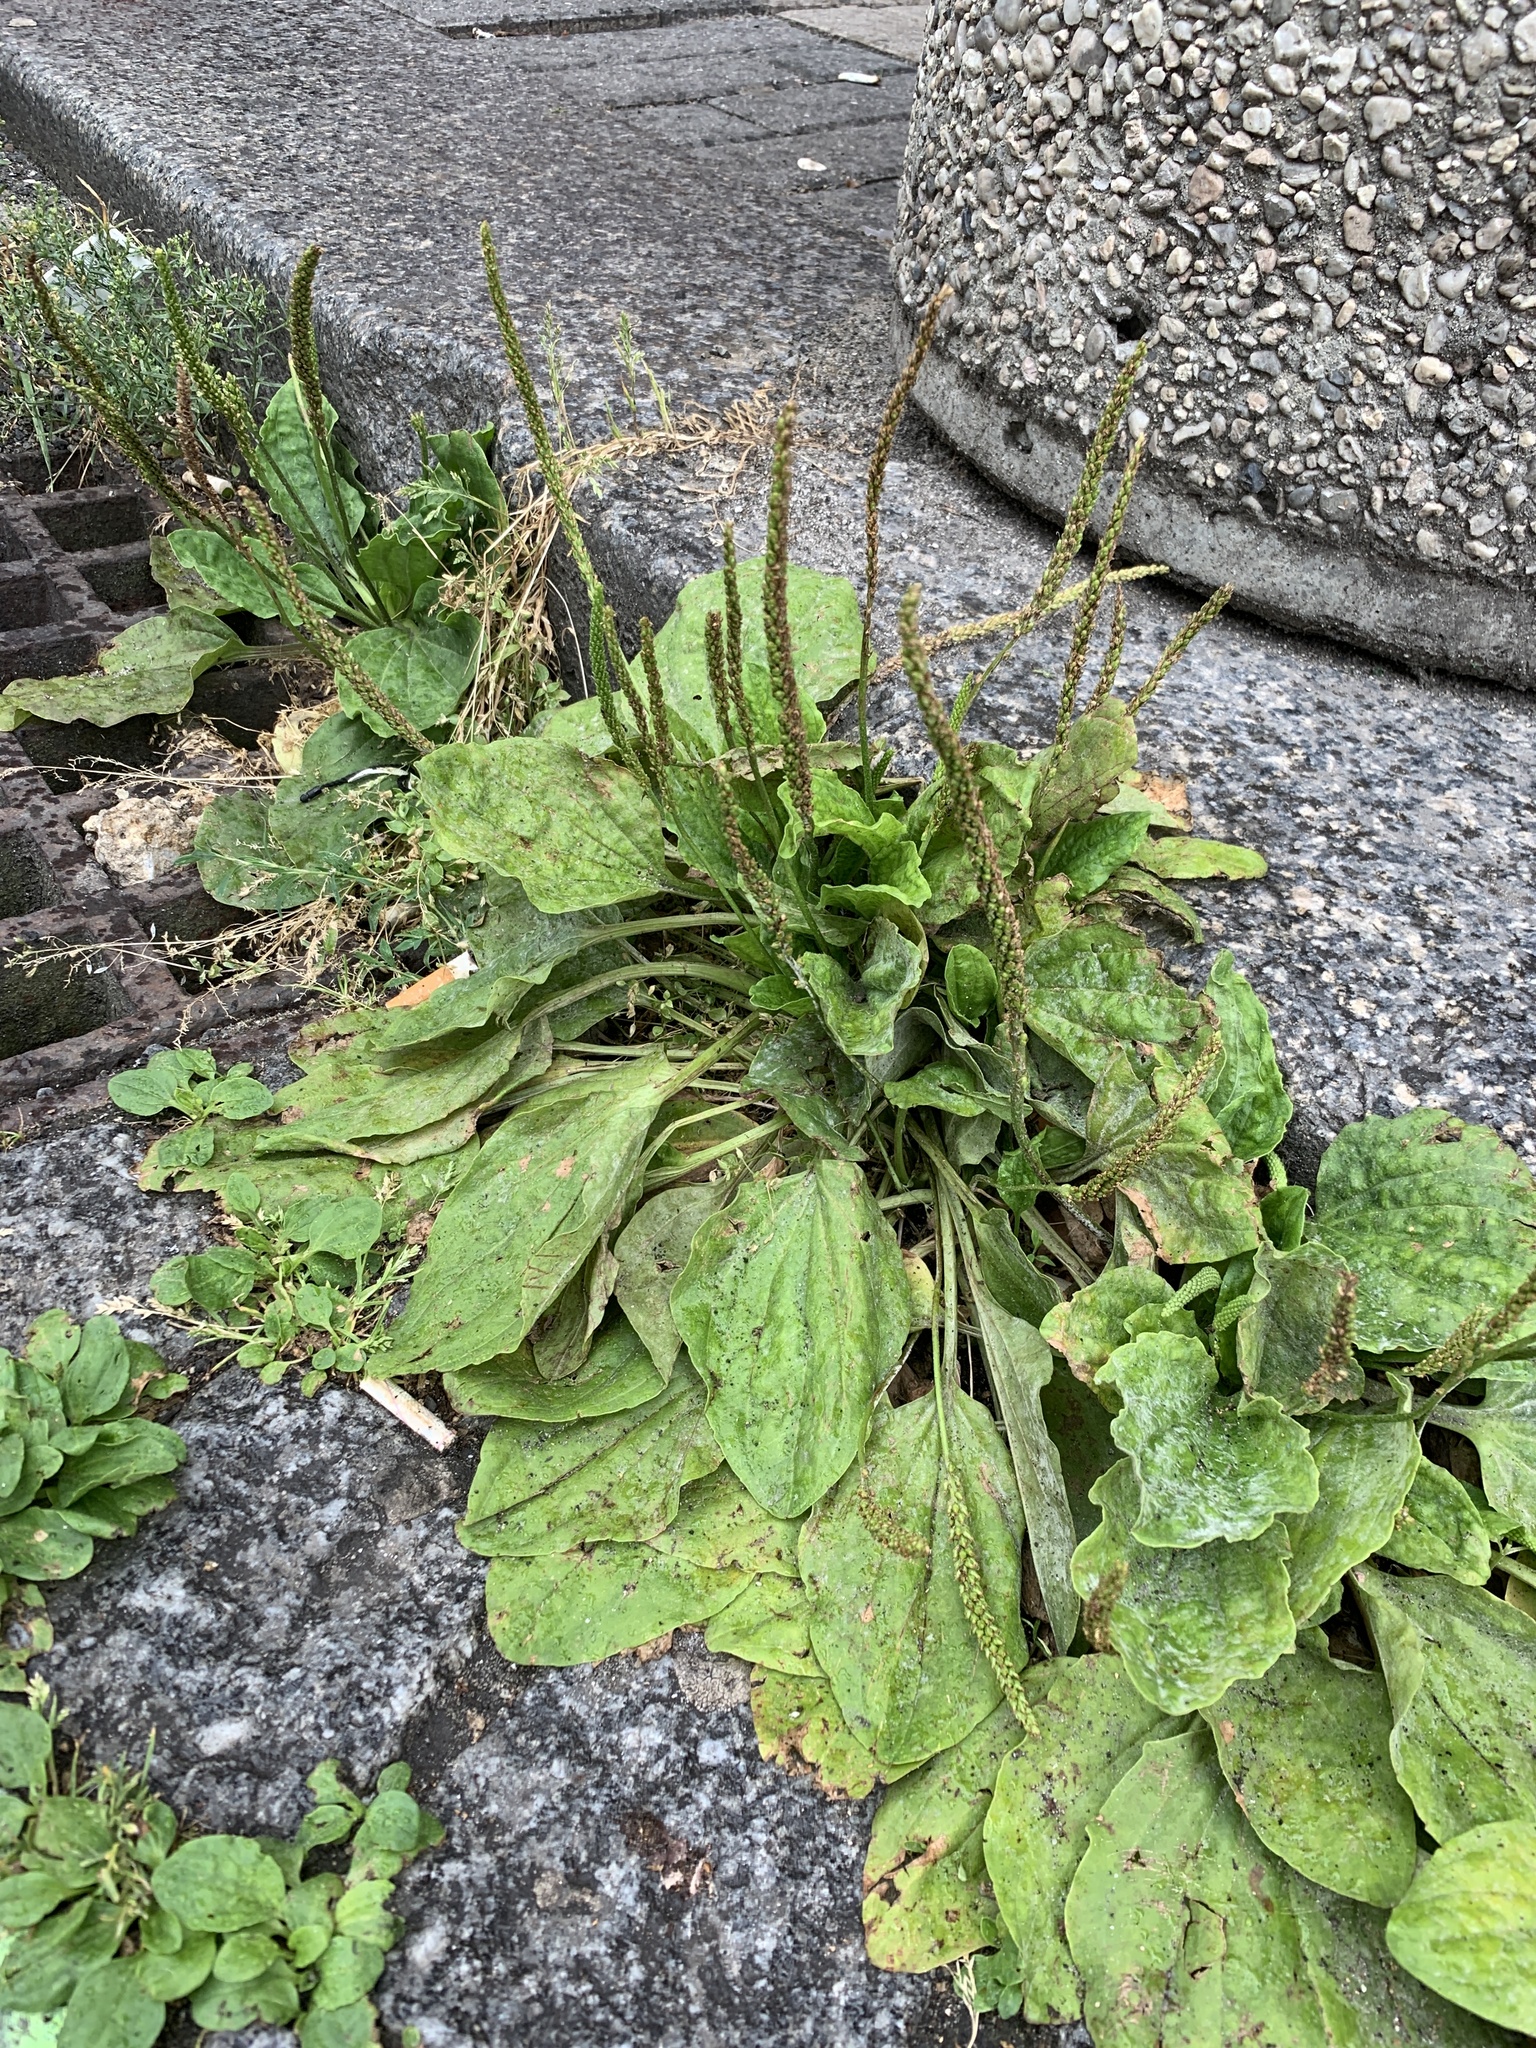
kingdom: Plantae
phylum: Tracheophyta
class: Magnoliopsida
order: Lamiales
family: Plantaginaceae
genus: Plantago
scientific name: Plantago major
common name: Common plantain
